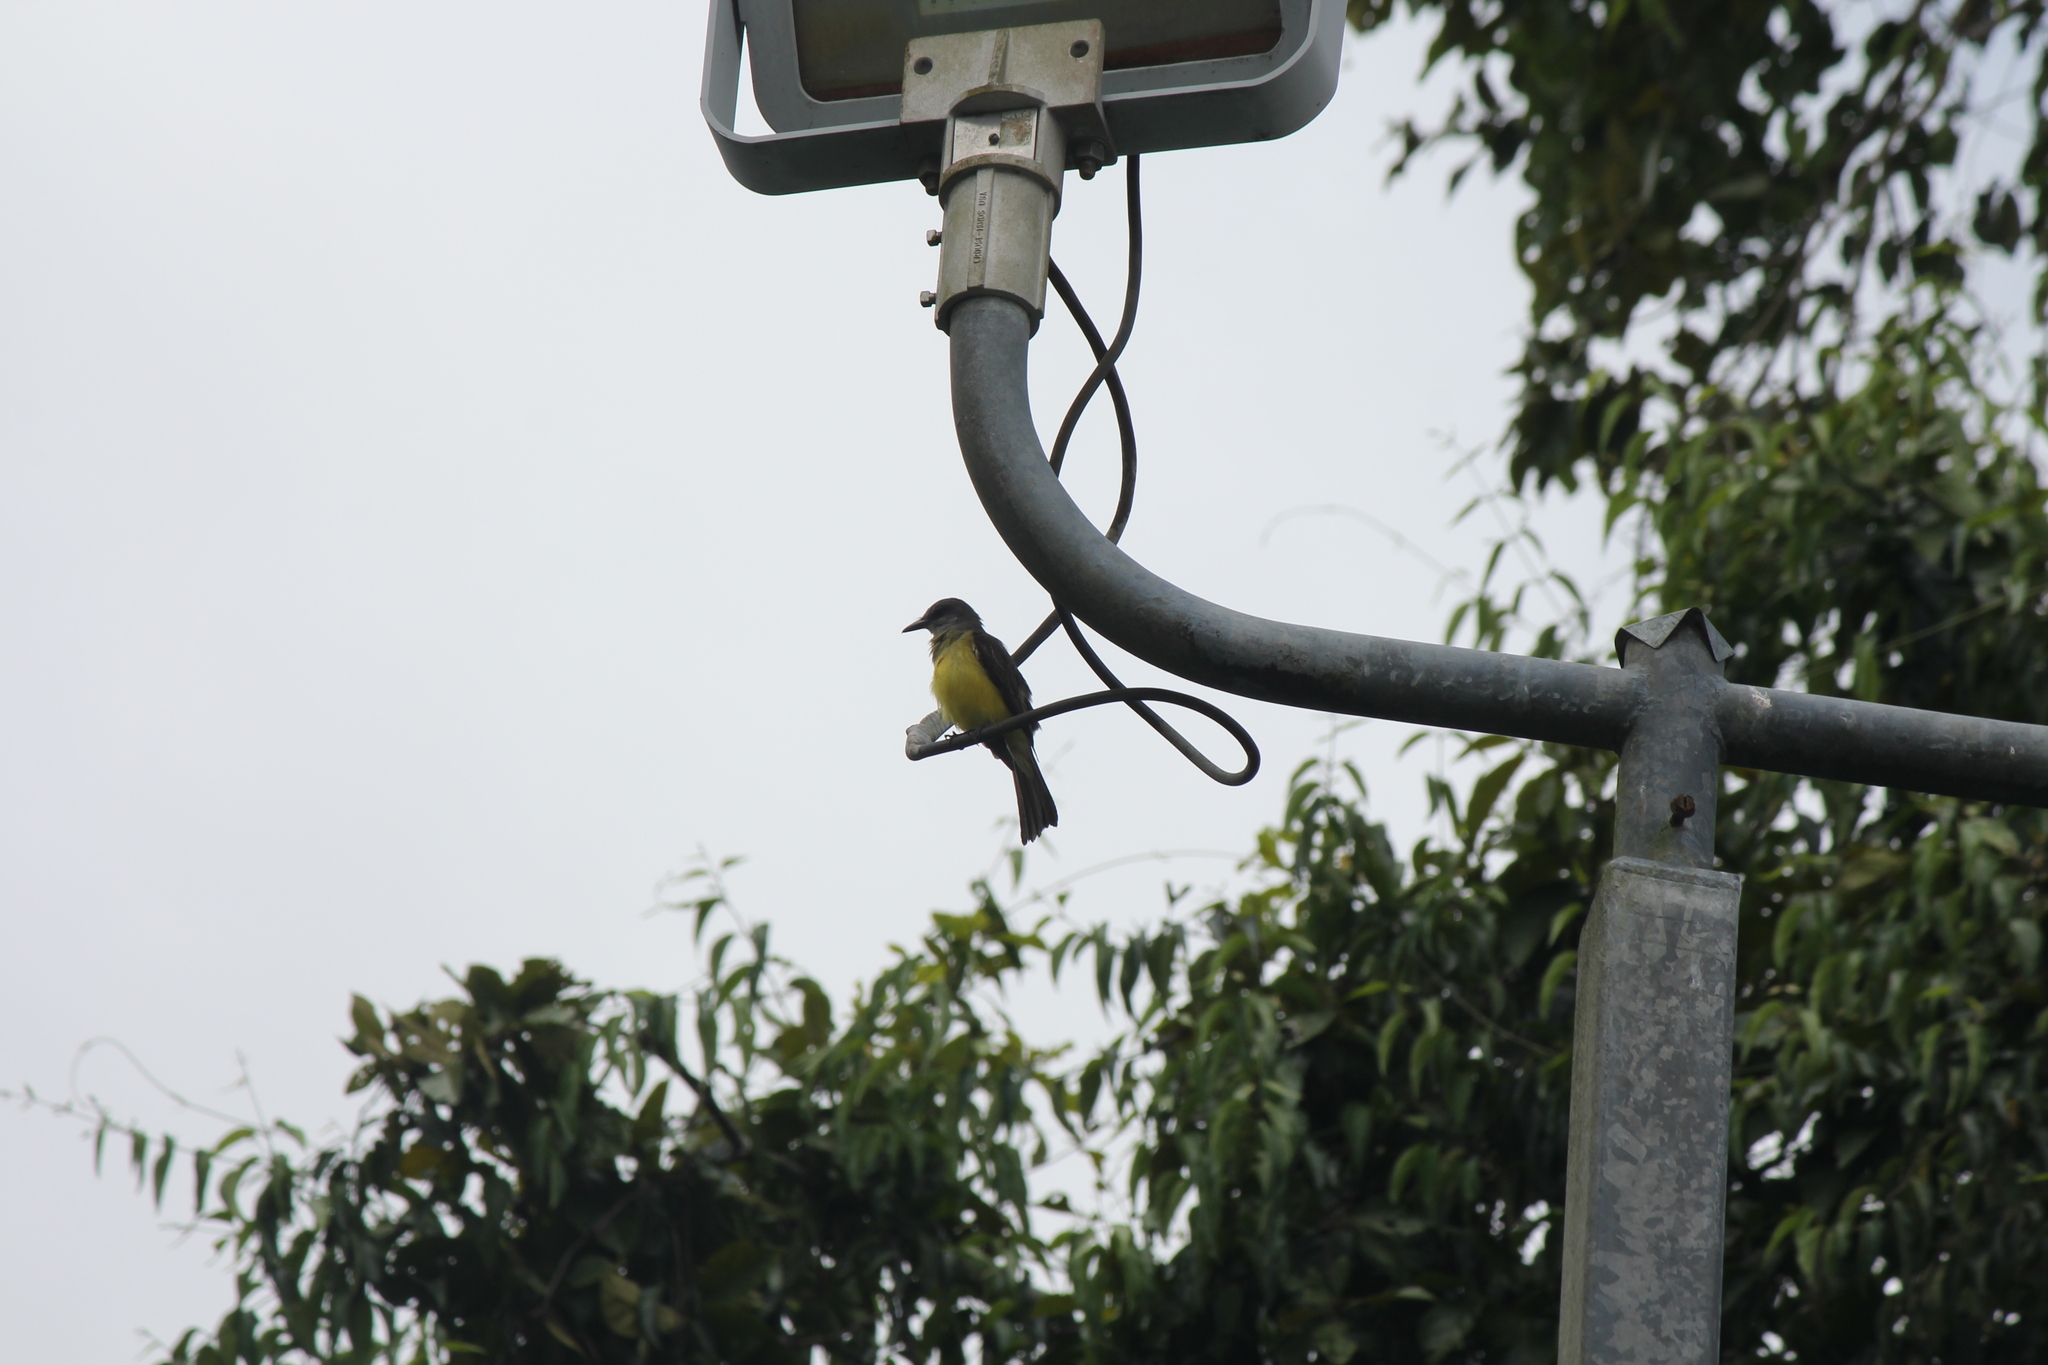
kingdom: Animalia
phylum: Chordata
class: Aves
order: Passeriformes
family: Tyrannidae
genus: Tyrannus
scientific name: Tyrannus melancholicus
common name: Tropical kingbird
